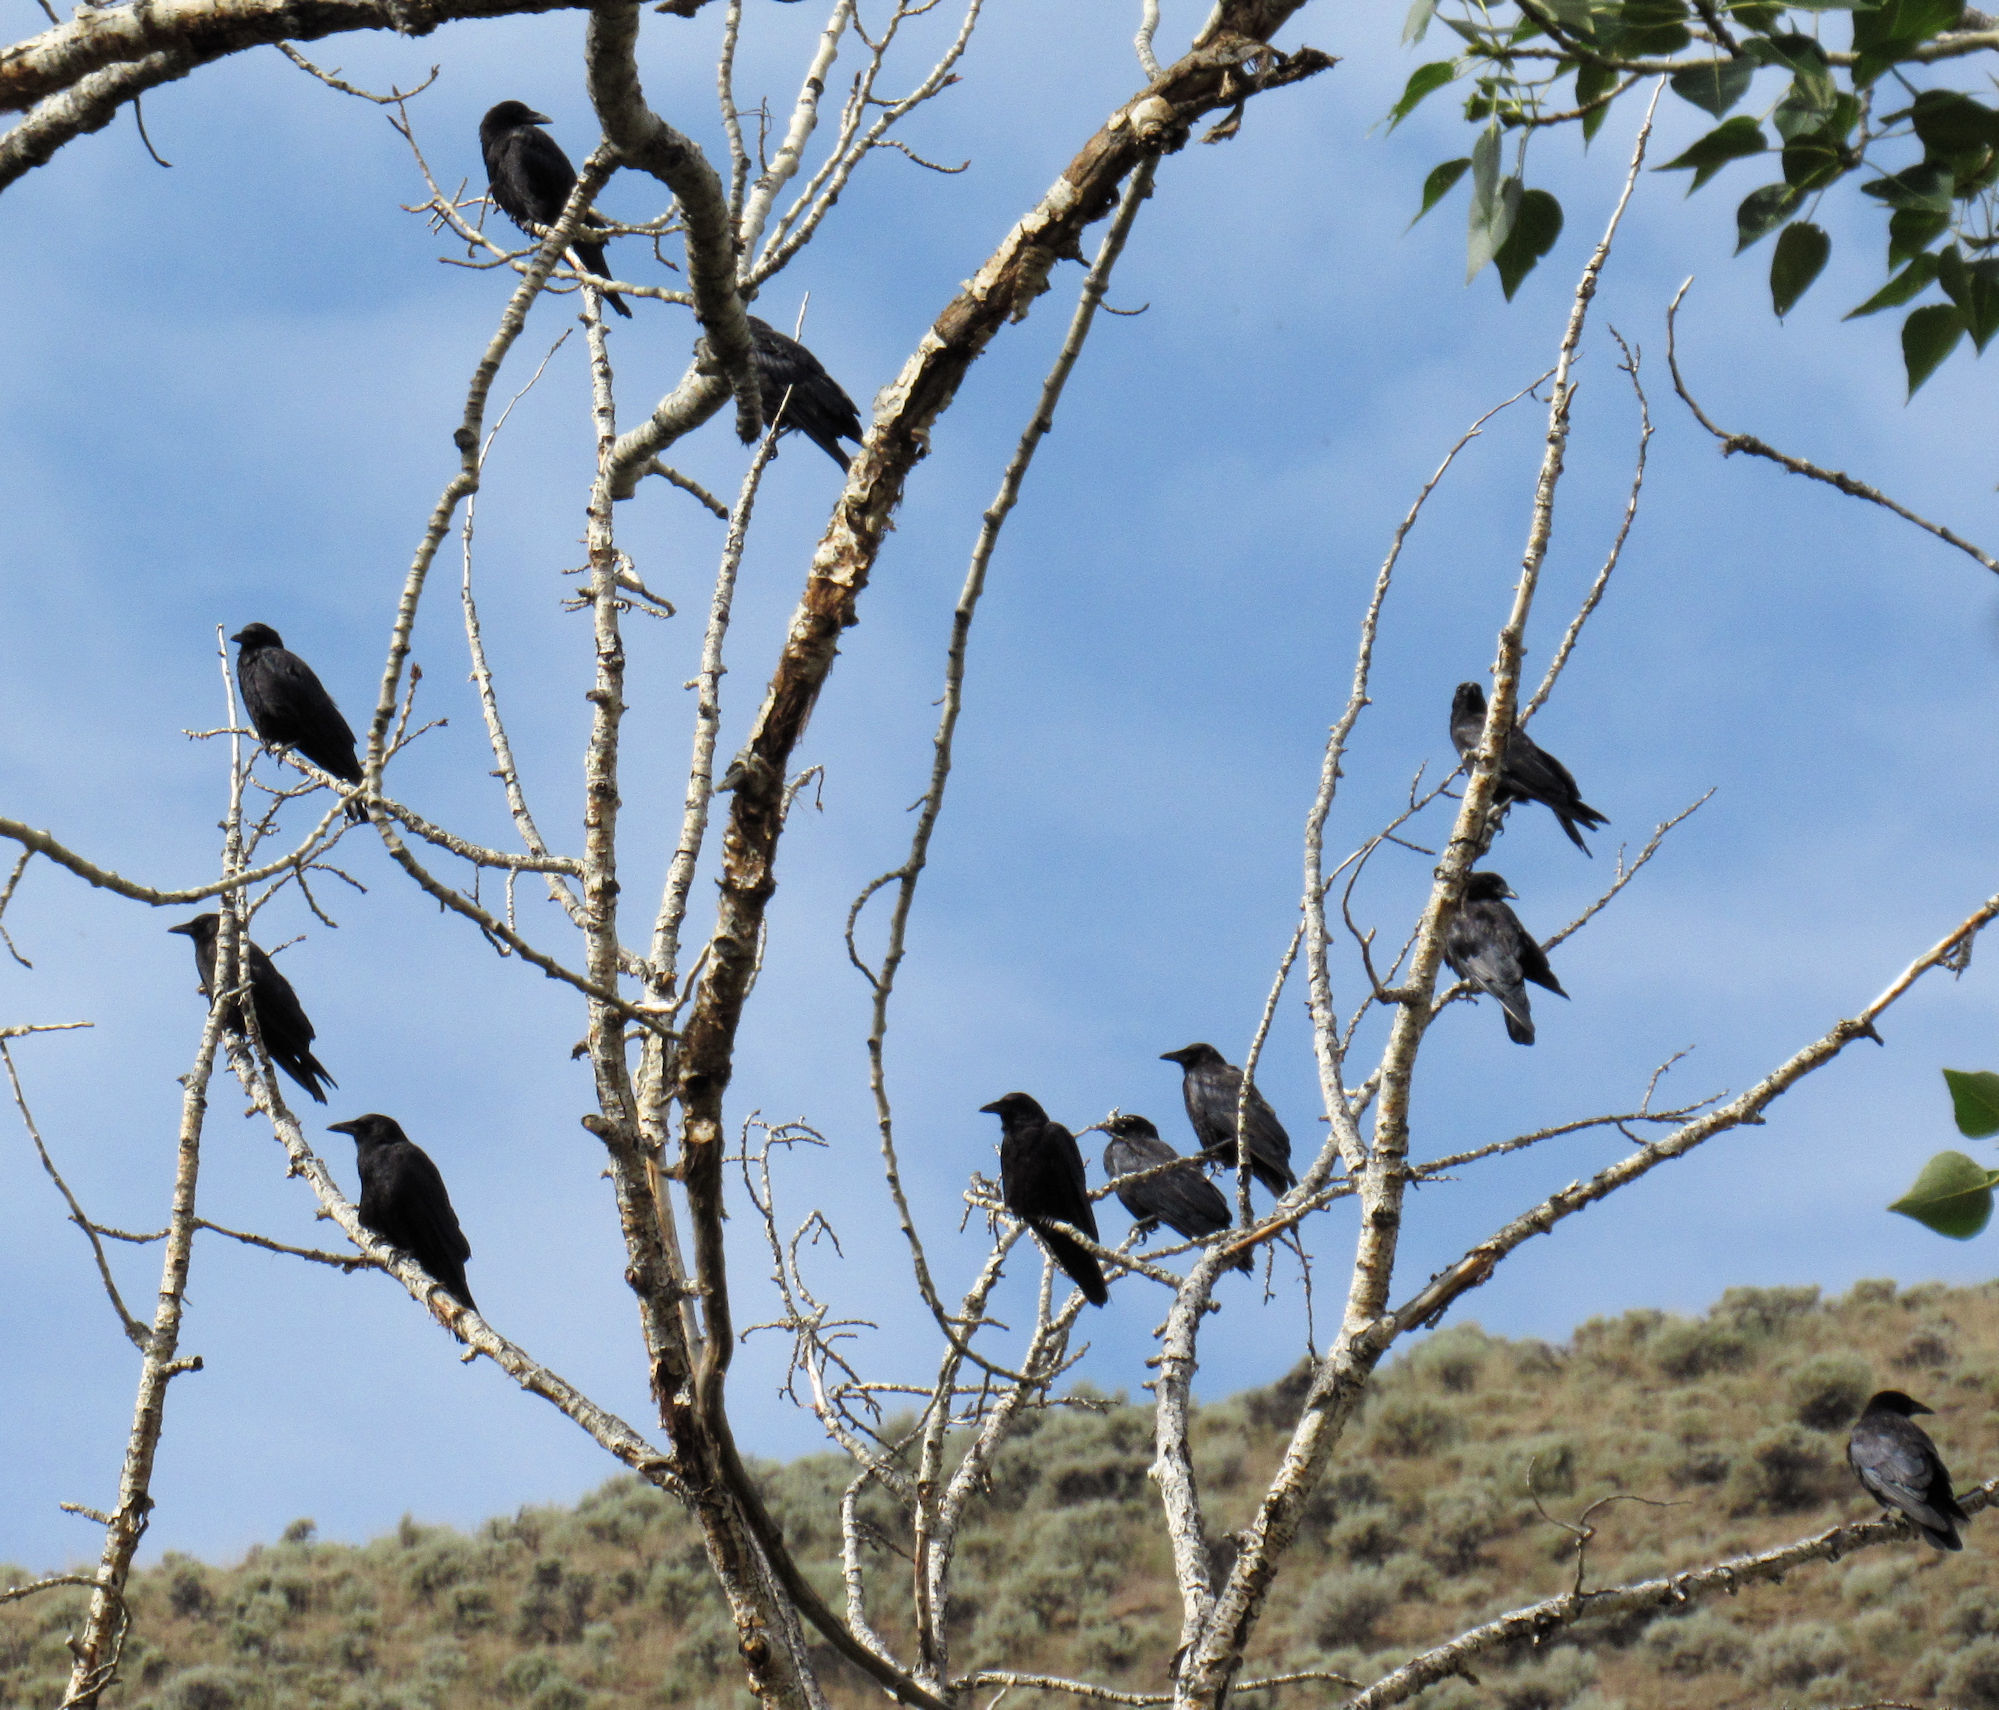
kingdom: Animalia
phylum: Chordata
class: Aves
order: Passeriformes
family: Corvidae
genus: Corvus
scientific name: Corvus brachyrhynchos
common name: American crow
